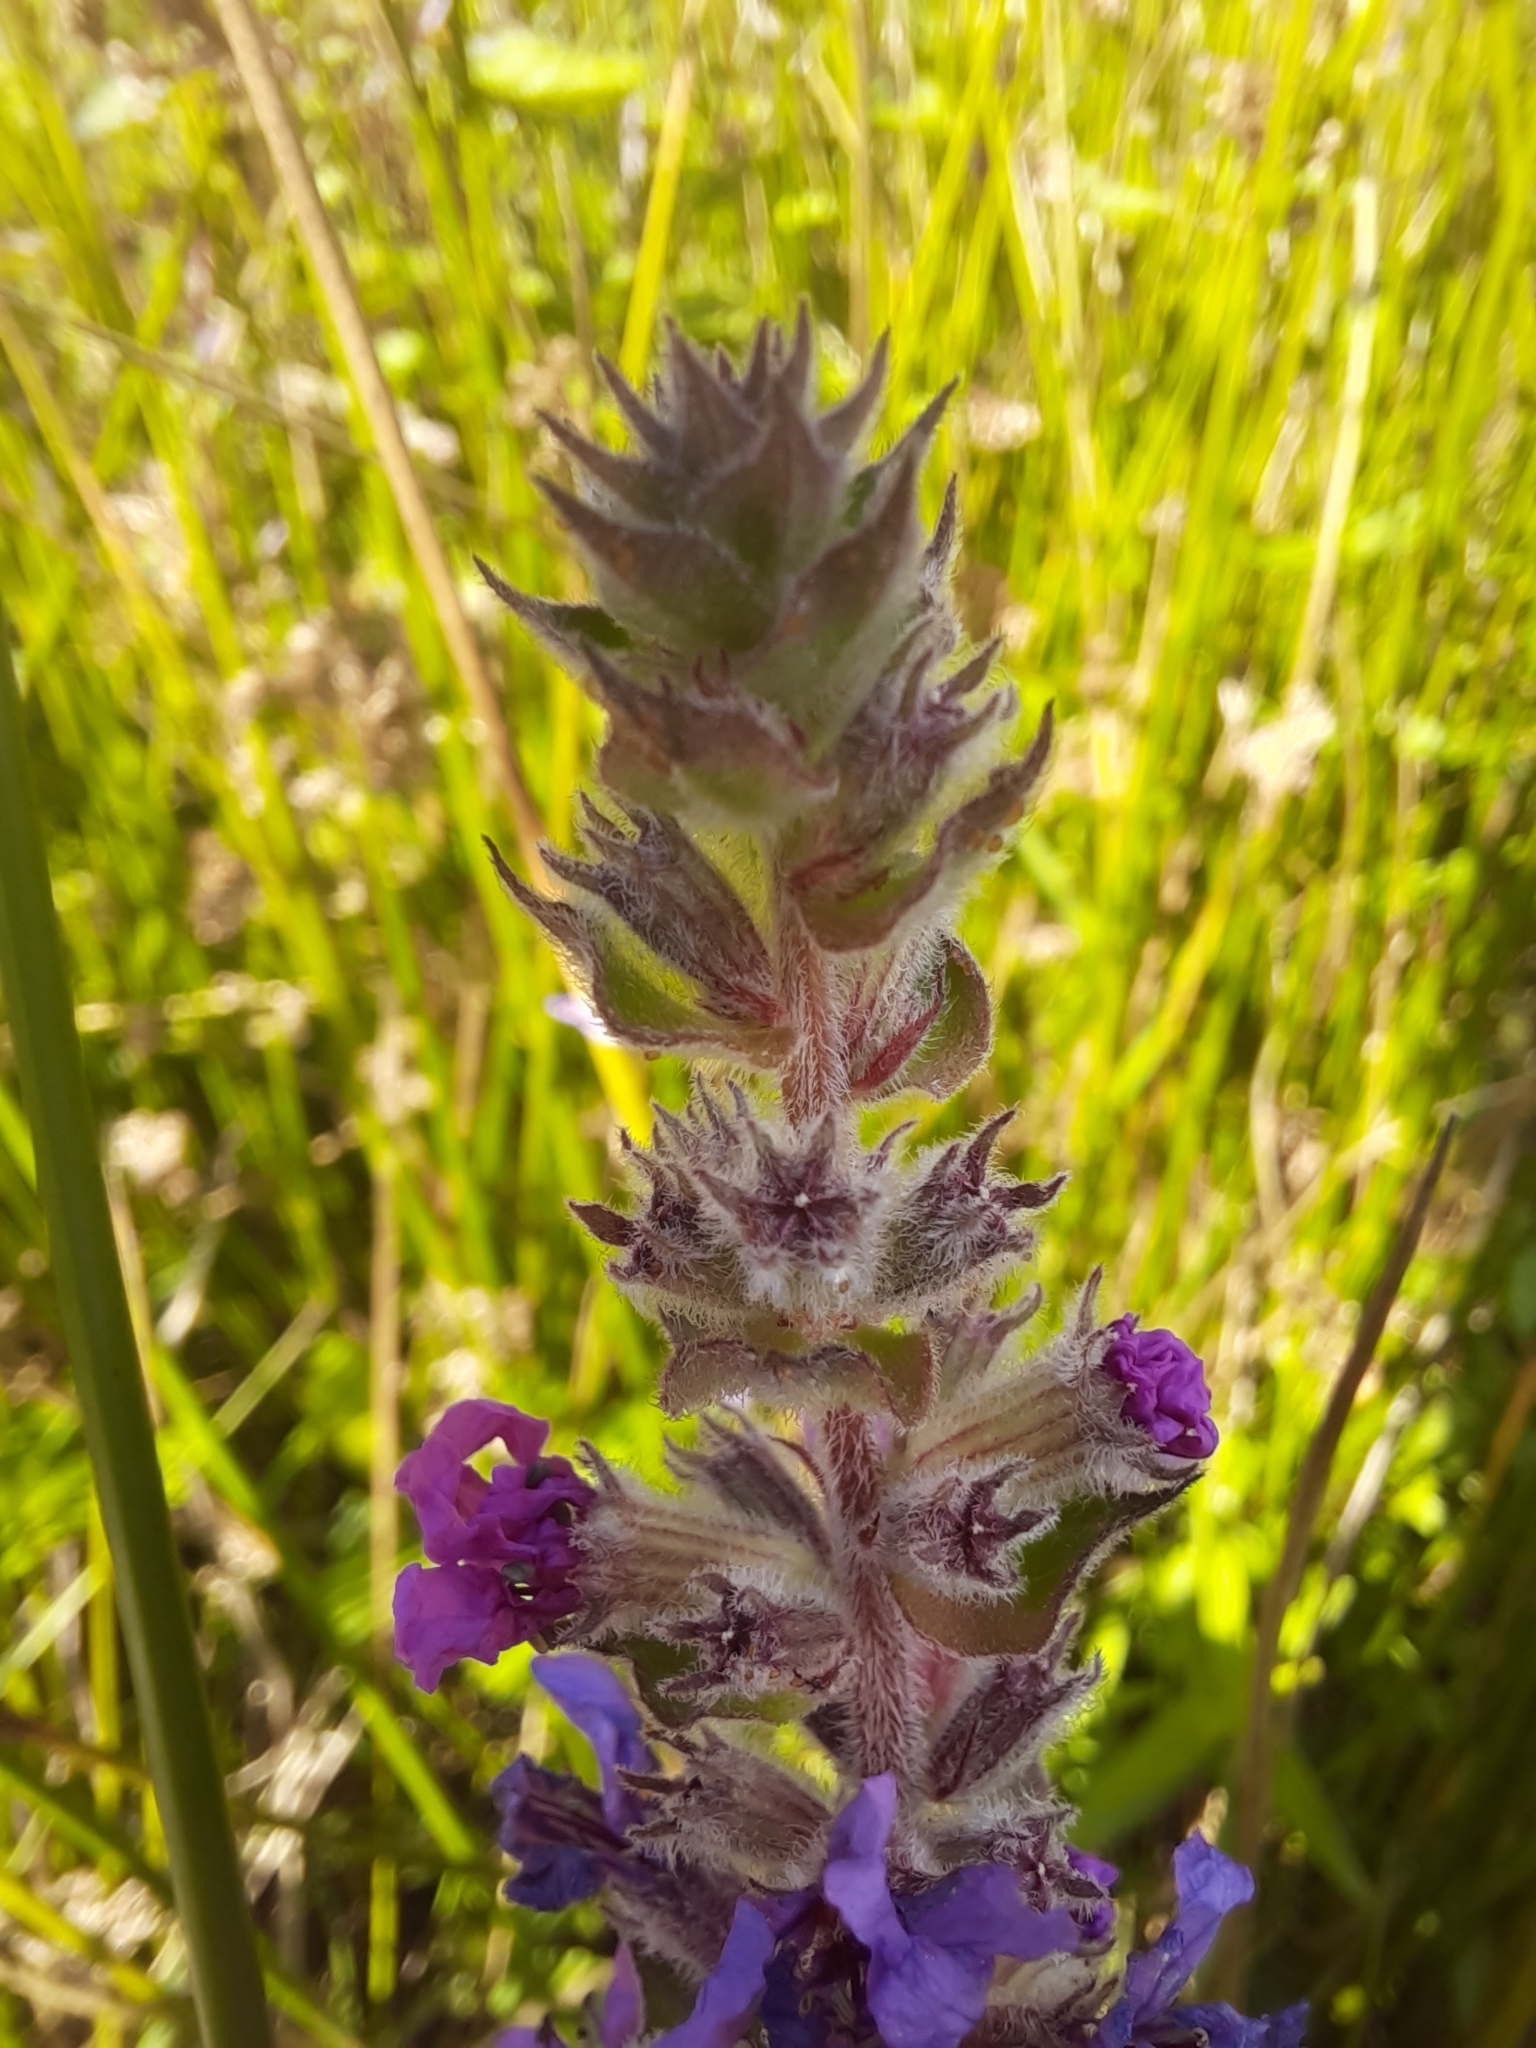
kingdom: Plantae
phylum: Tracheophyta
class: Magnoliopsida
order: Myrtales
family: Lythraceae
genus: Lythrum
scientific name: Lythrum salicaria
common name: Purple loosestrife
